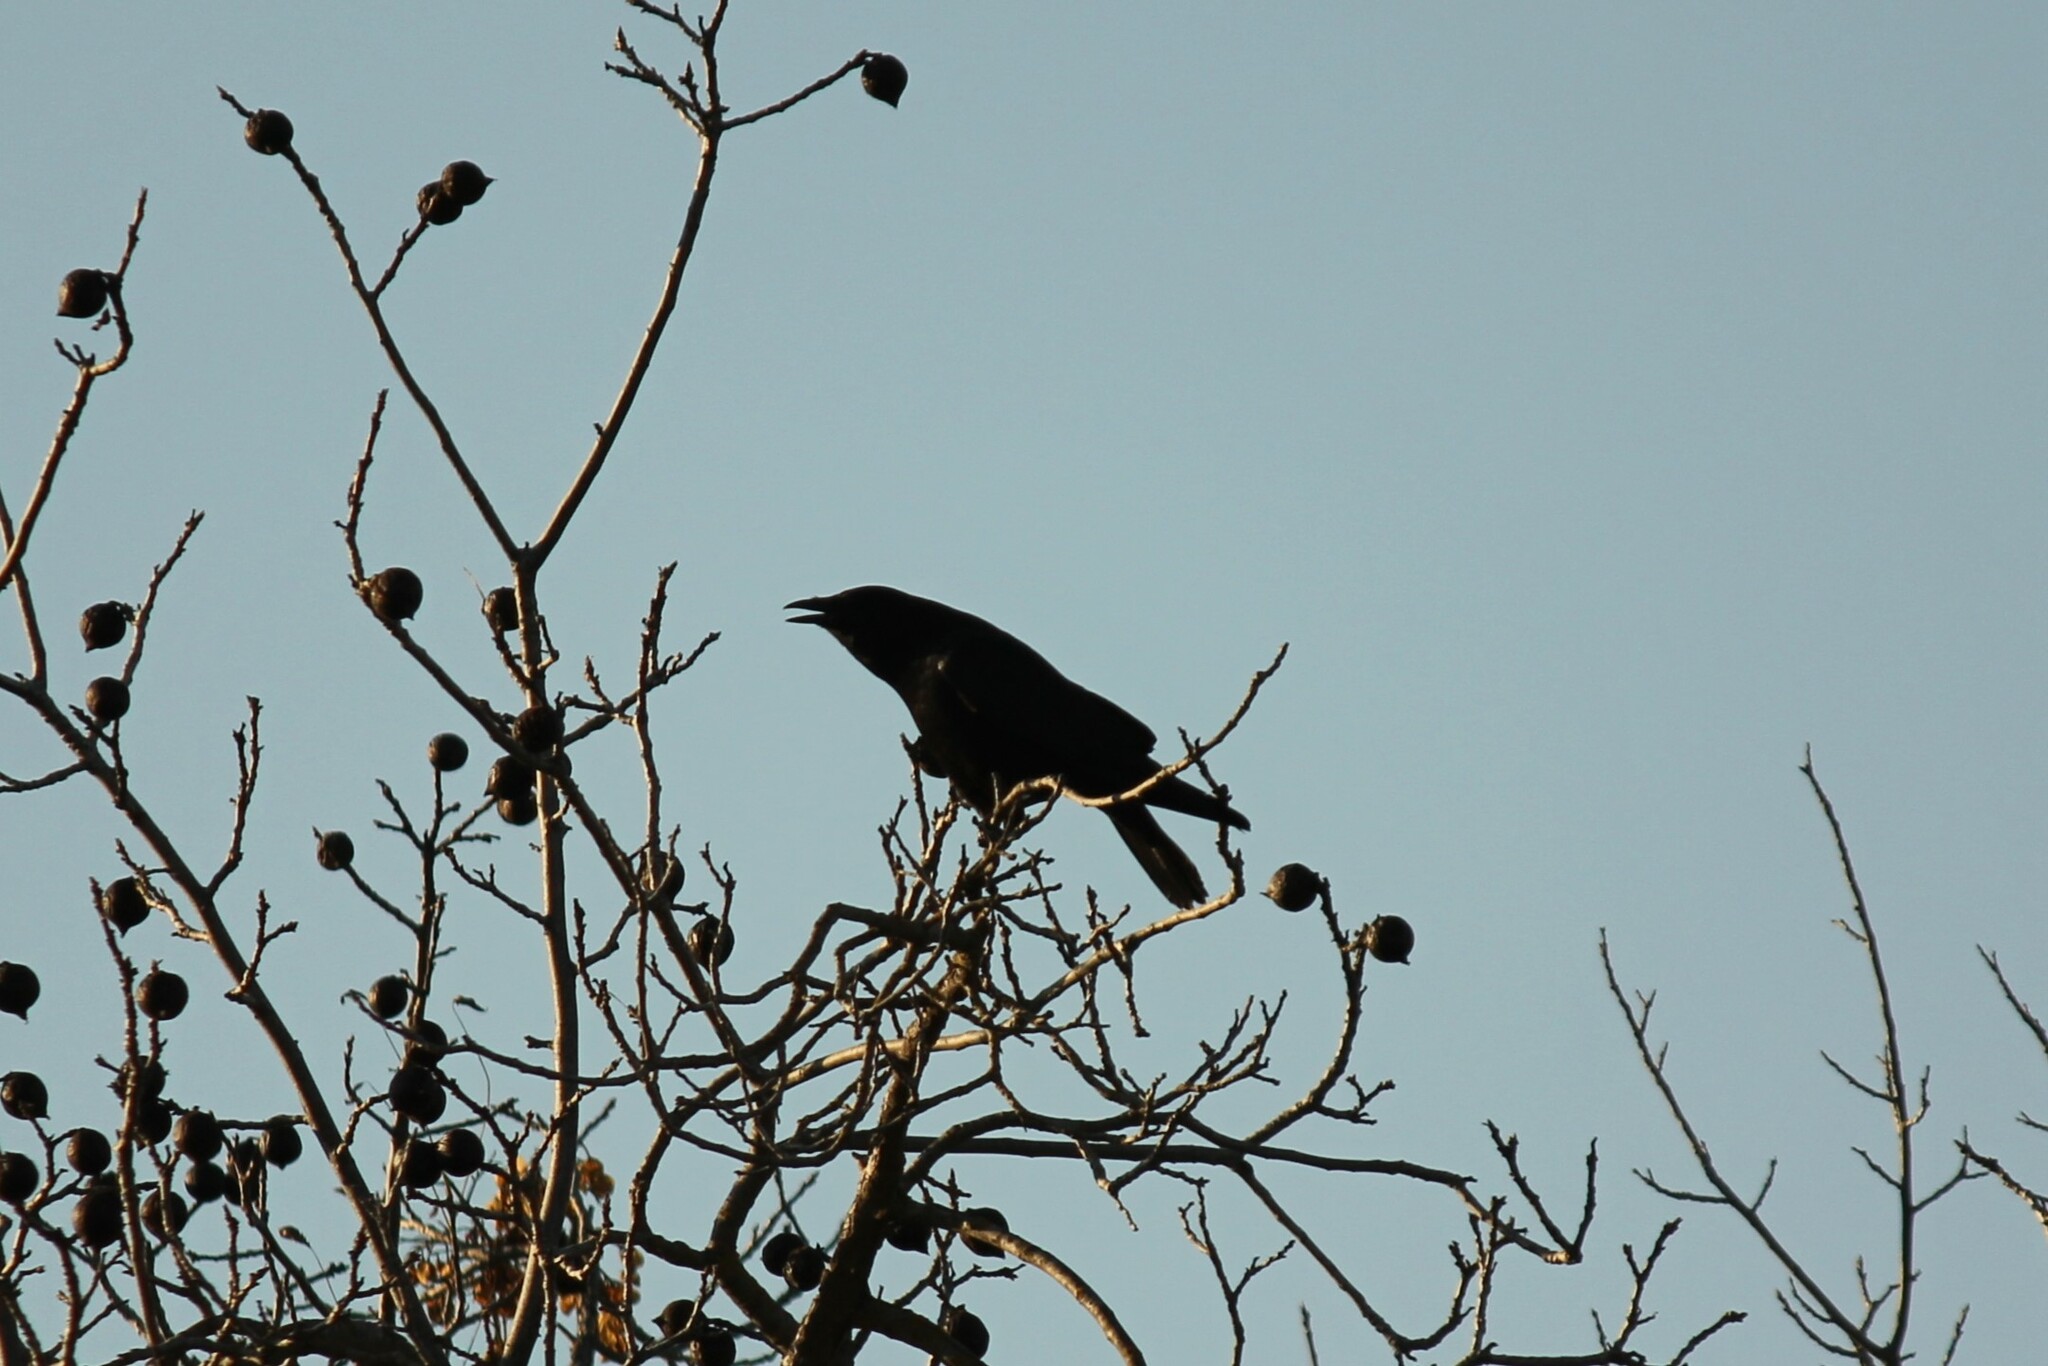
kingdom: Animalia
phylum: Chordata
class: Aves
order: Passeriformes
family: Corvidae
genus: Corvus
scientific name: Corvus brachyrhynchos
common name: American crow
